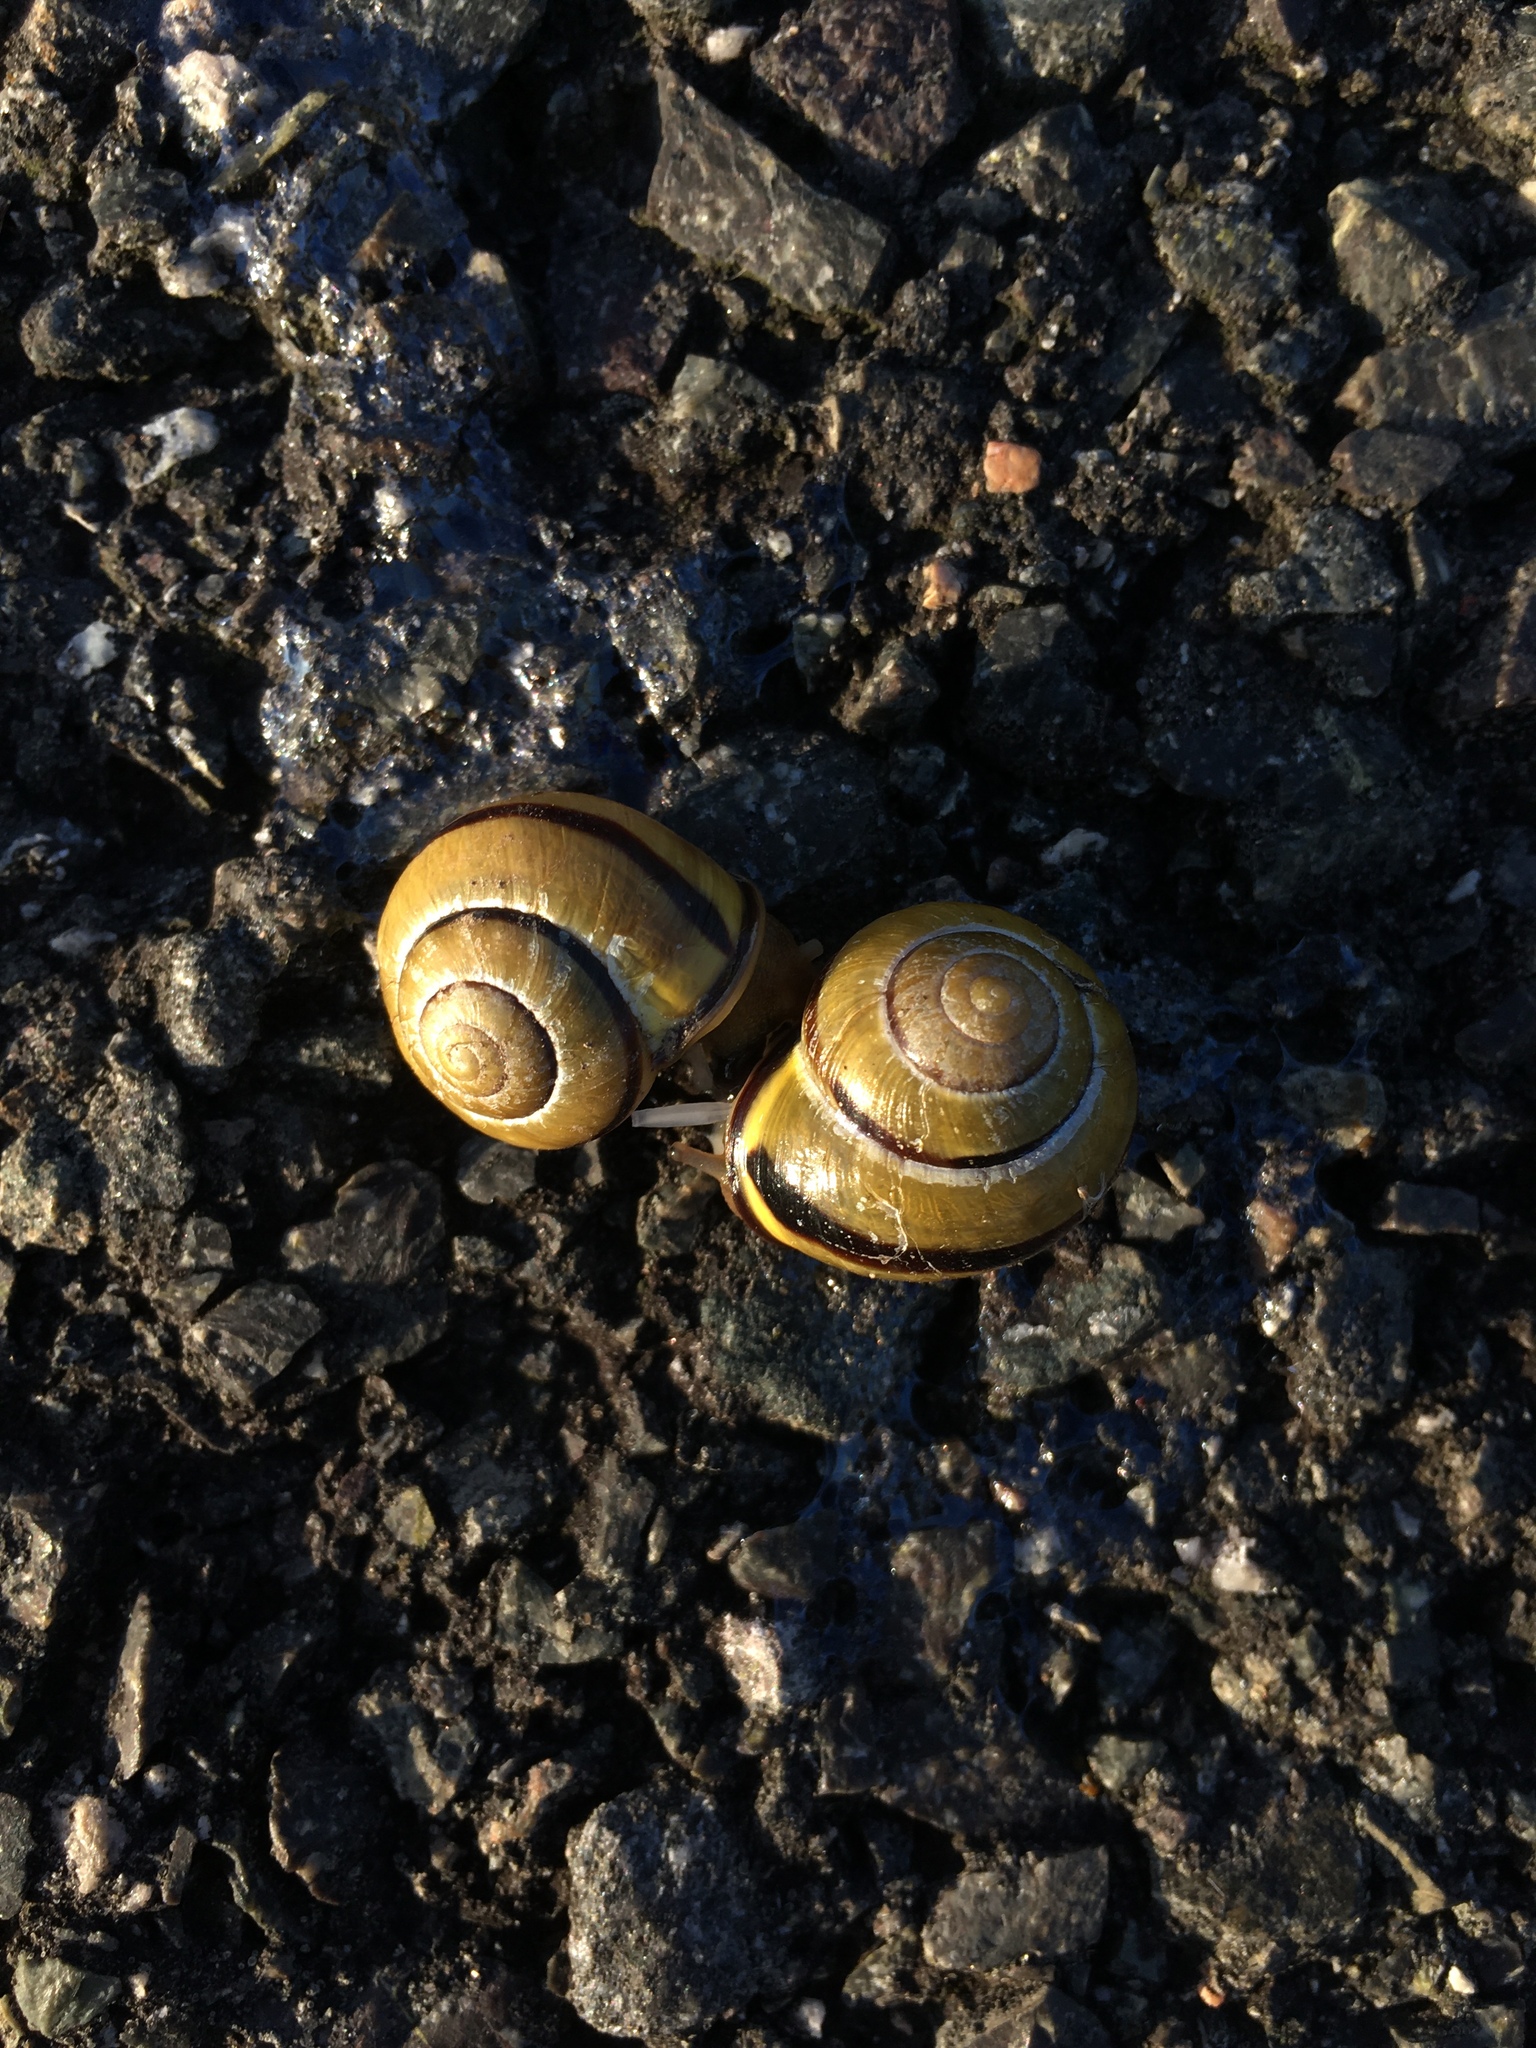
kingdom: Animalia
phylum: Mollusca
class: Gastropoda
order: Stylommatophora
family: Helicidae
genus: Cepaea
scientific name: Cepaea nemoralis
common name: Grovesnail
